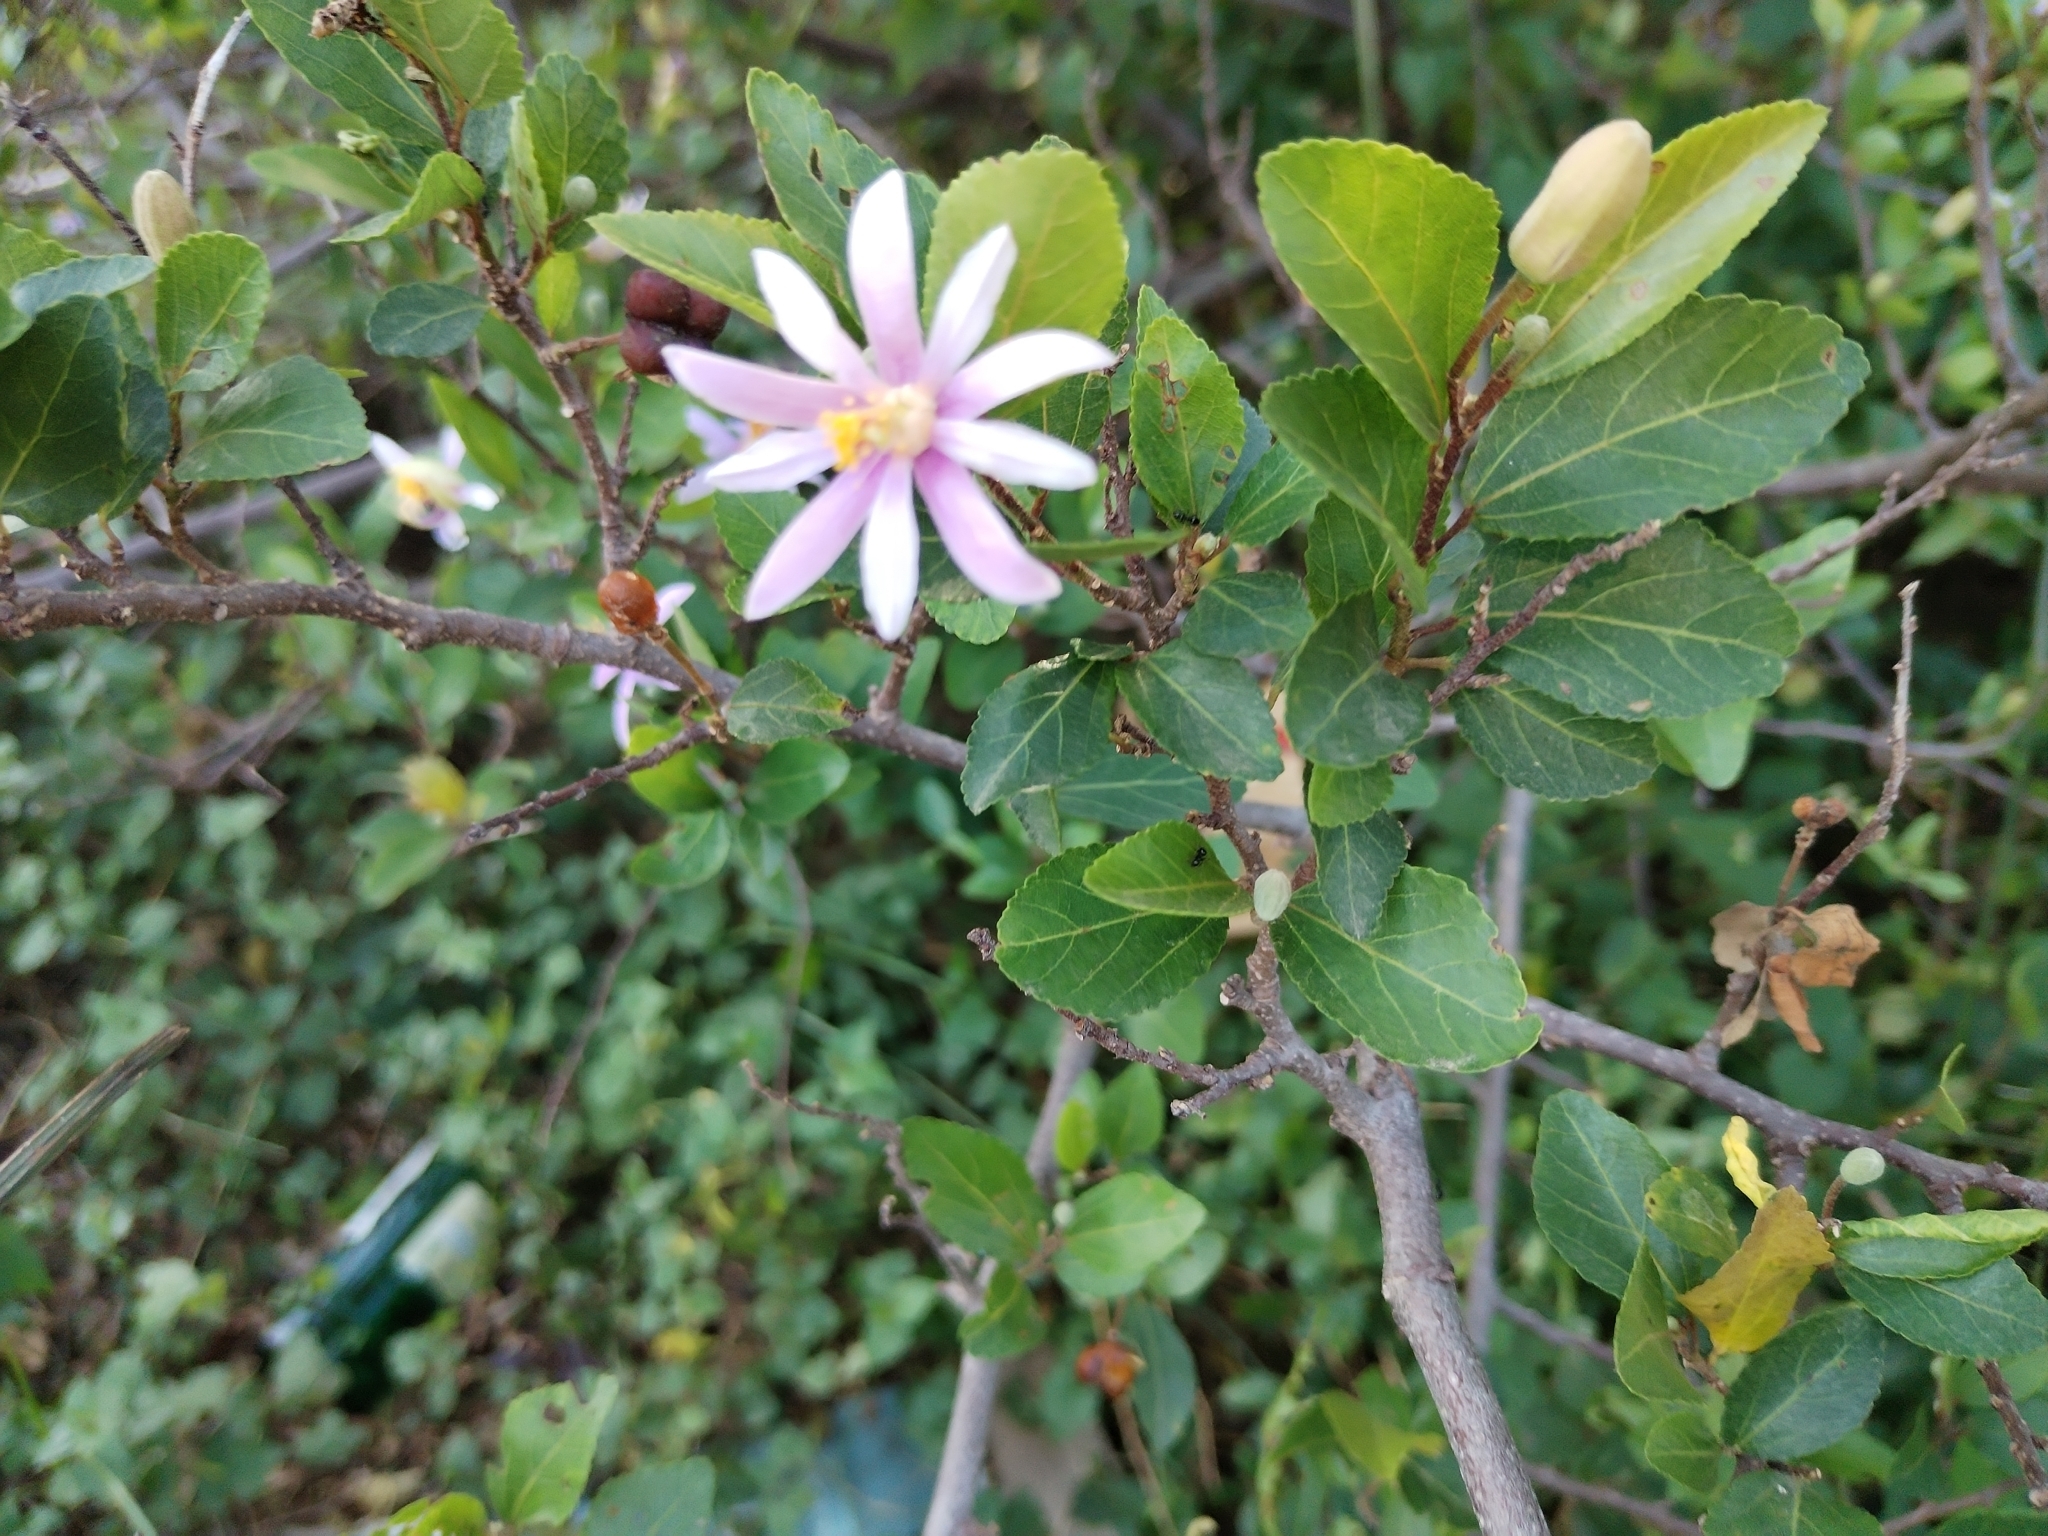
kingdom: Plantae
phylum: Tracheophyta
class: Magnoliopsida
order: Malvales
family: Malvaceae
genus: Grewia
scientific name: Grewia occidentalis
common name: Crossberry
